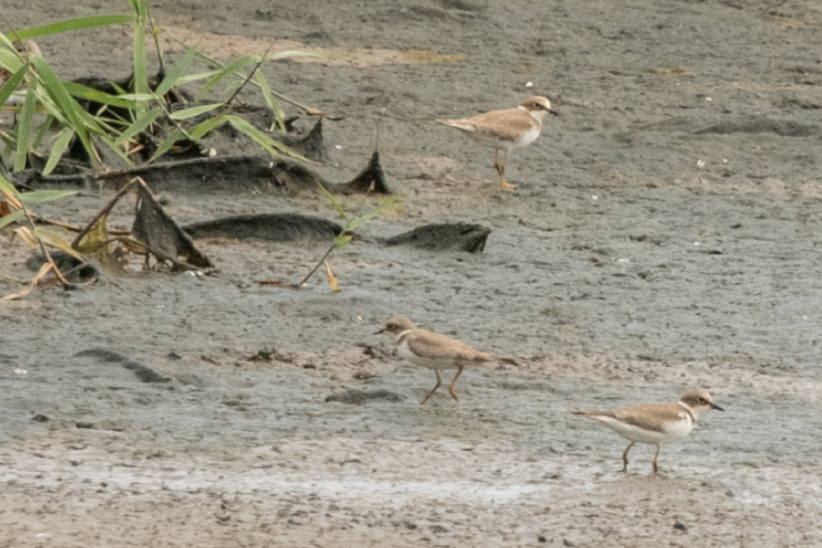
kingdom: Animalia
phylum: Chordata
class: Aves
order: Charadriiformes
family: Charadriidae
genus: Charadrius
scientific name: Charadrius dubius
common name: Little ringed plover
